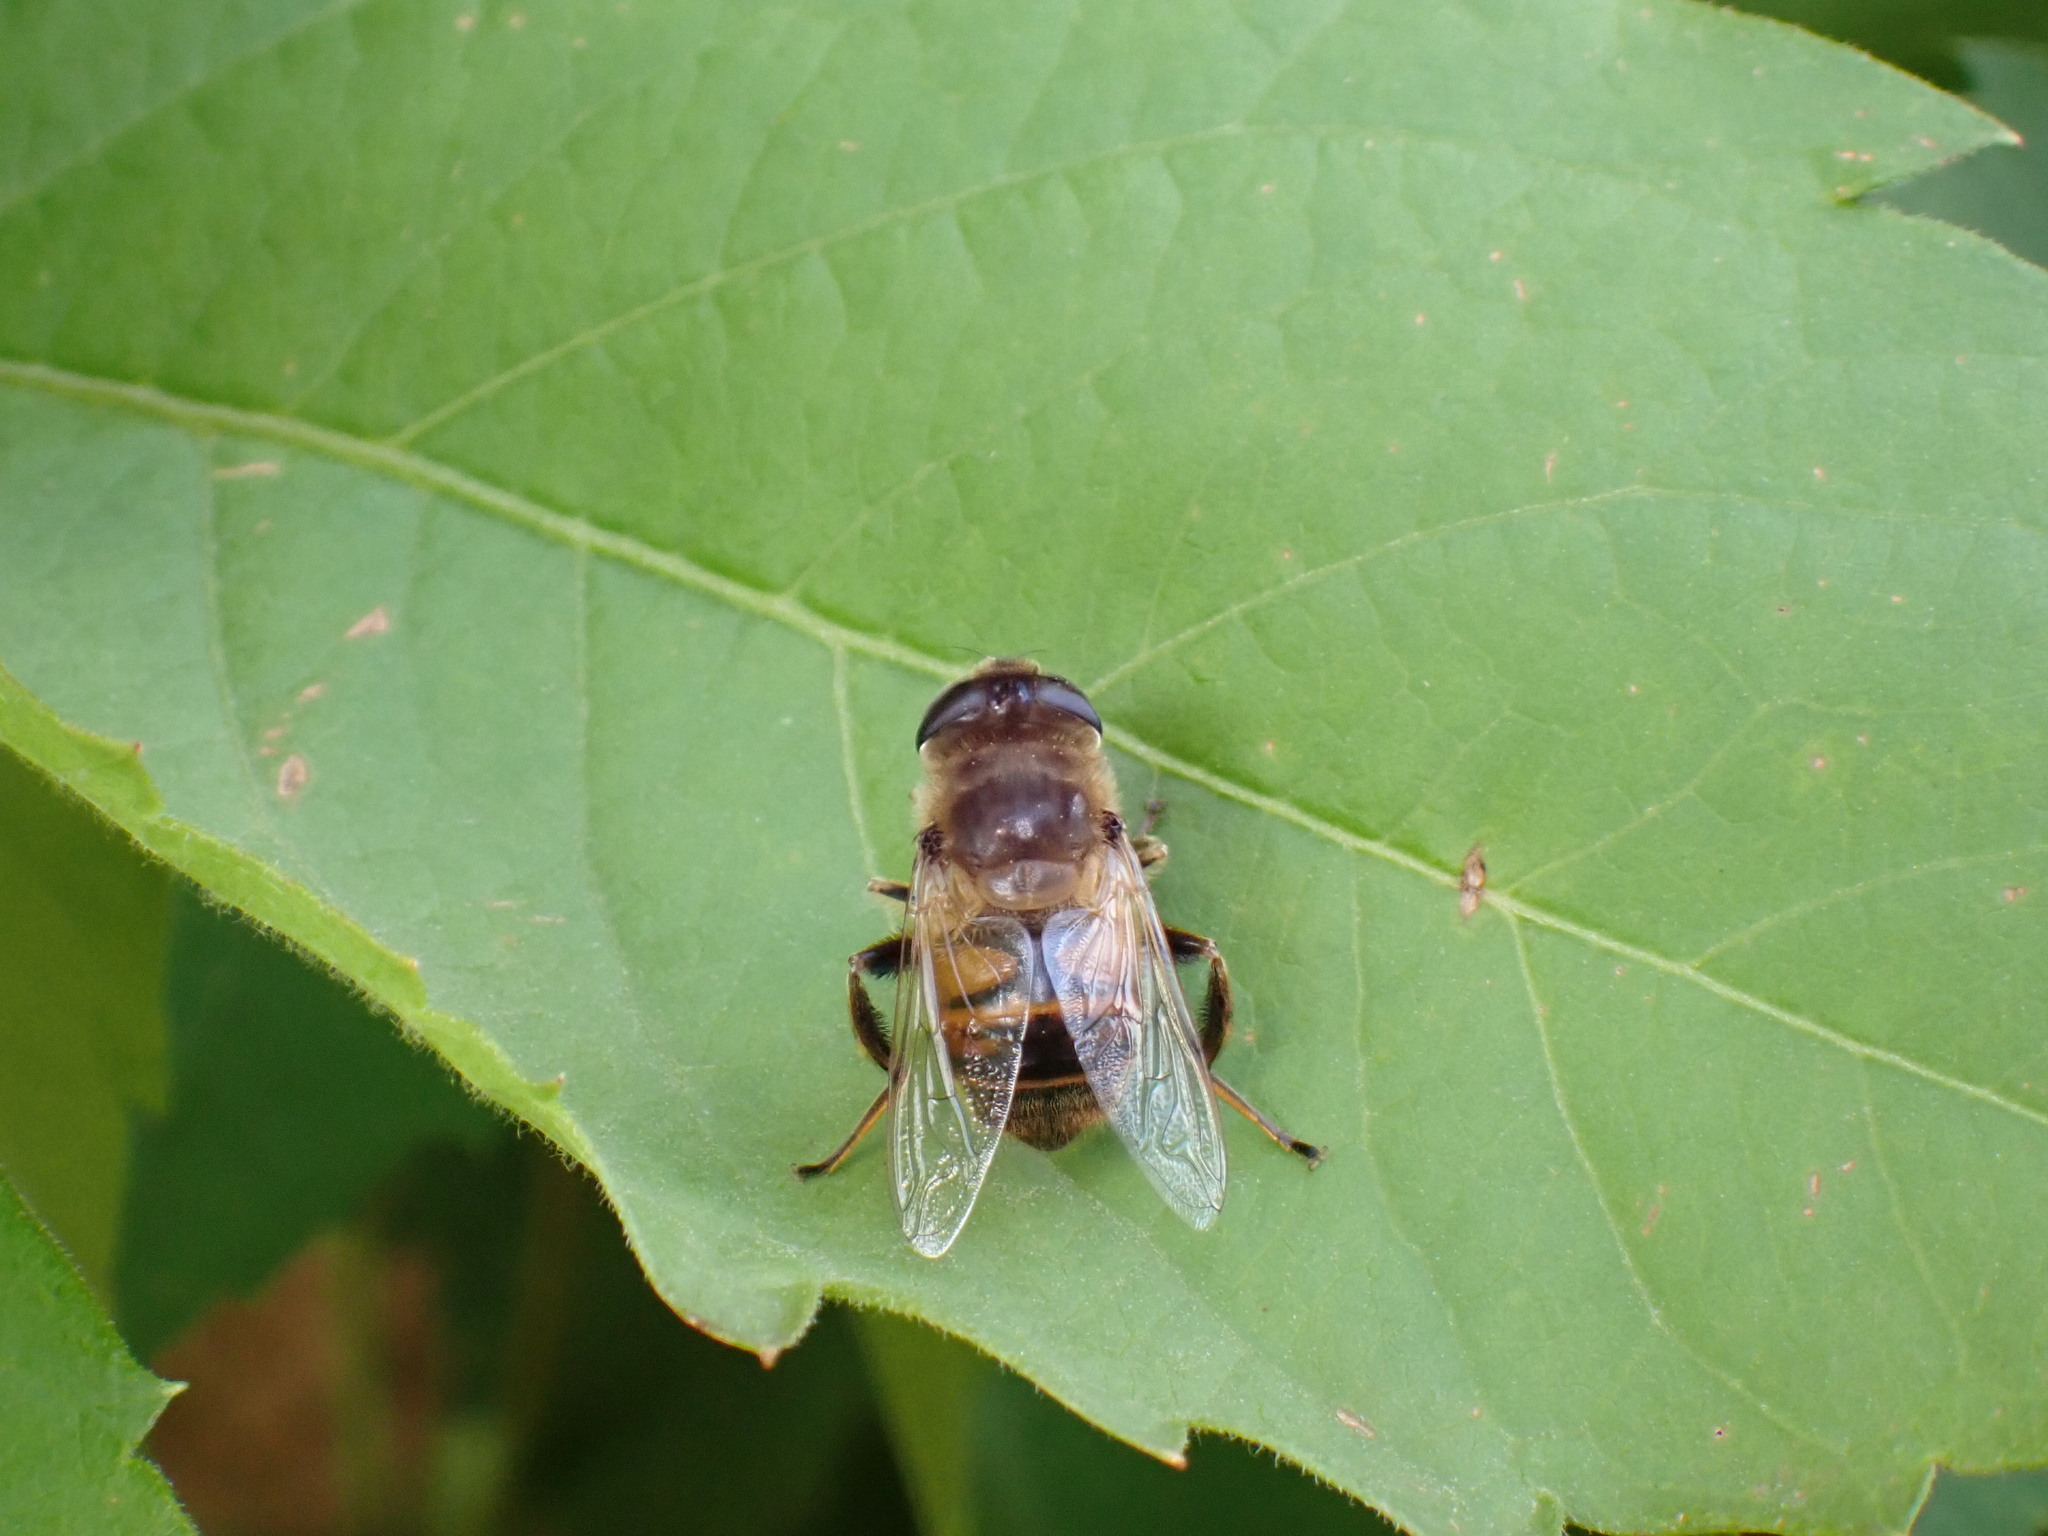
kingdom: Animalia
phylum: Arthropoda
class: Insecta
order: Diptera
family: Syrphidae
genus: Eristalis
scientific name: Eristalis tenax
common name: Drone fly
